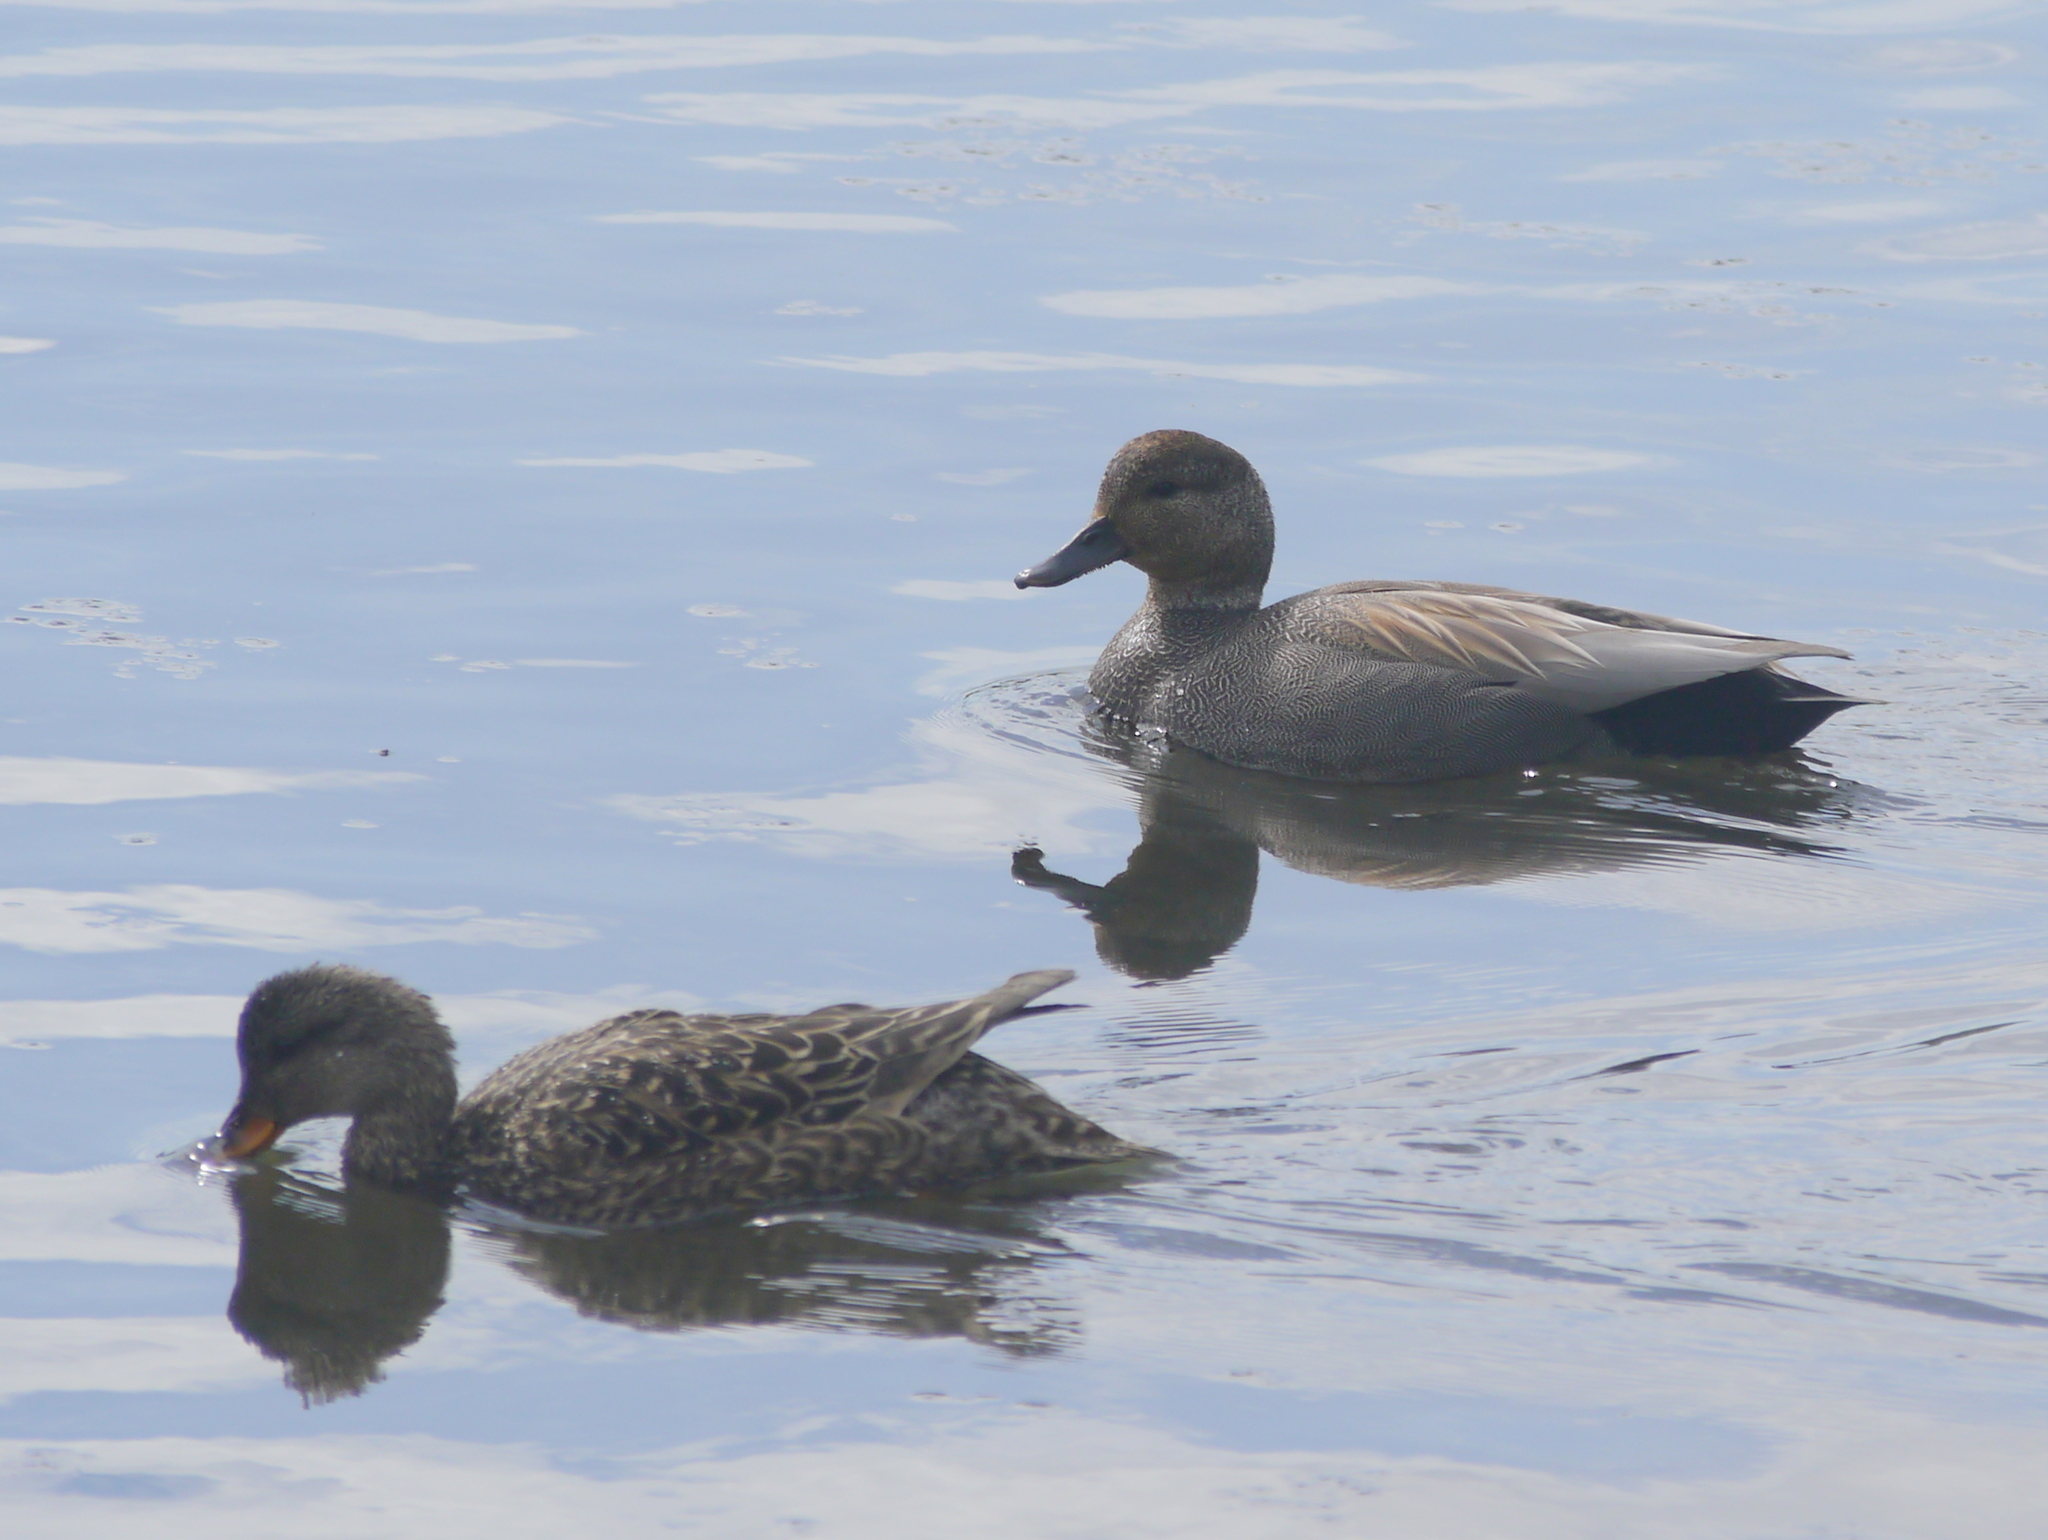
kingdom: Animalia
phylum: Chordata
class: Aves
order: Anseriformes
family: Anatidae
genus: Mareca
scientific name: Mareca strepera
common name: Gadwall
